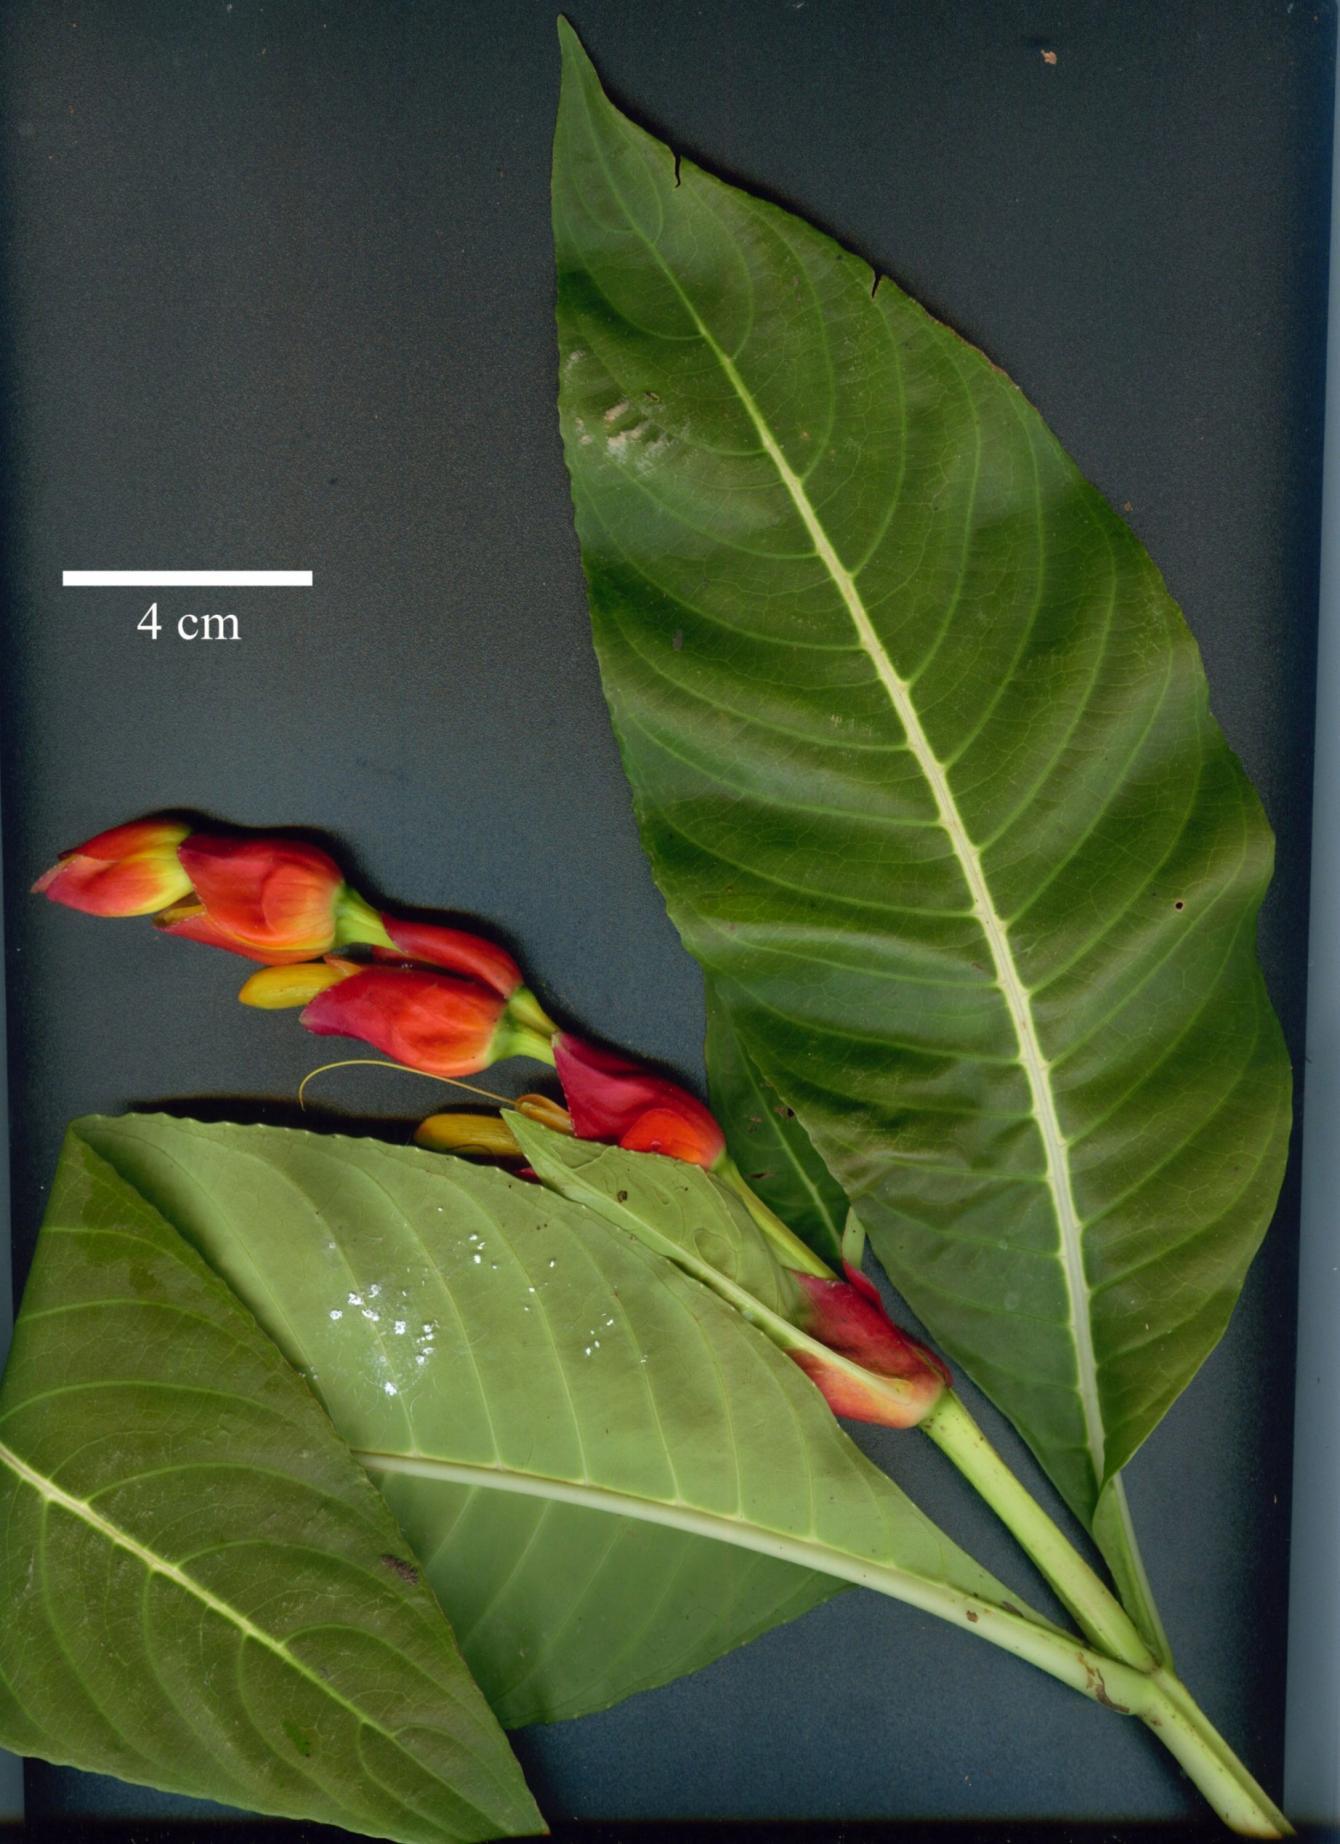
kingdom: Plantae
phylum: Tracheophyta
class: Magnoliopsida
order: Lamiales
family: Acanthaceae
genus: Sanchezia
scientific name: Sanchezia oblonga
